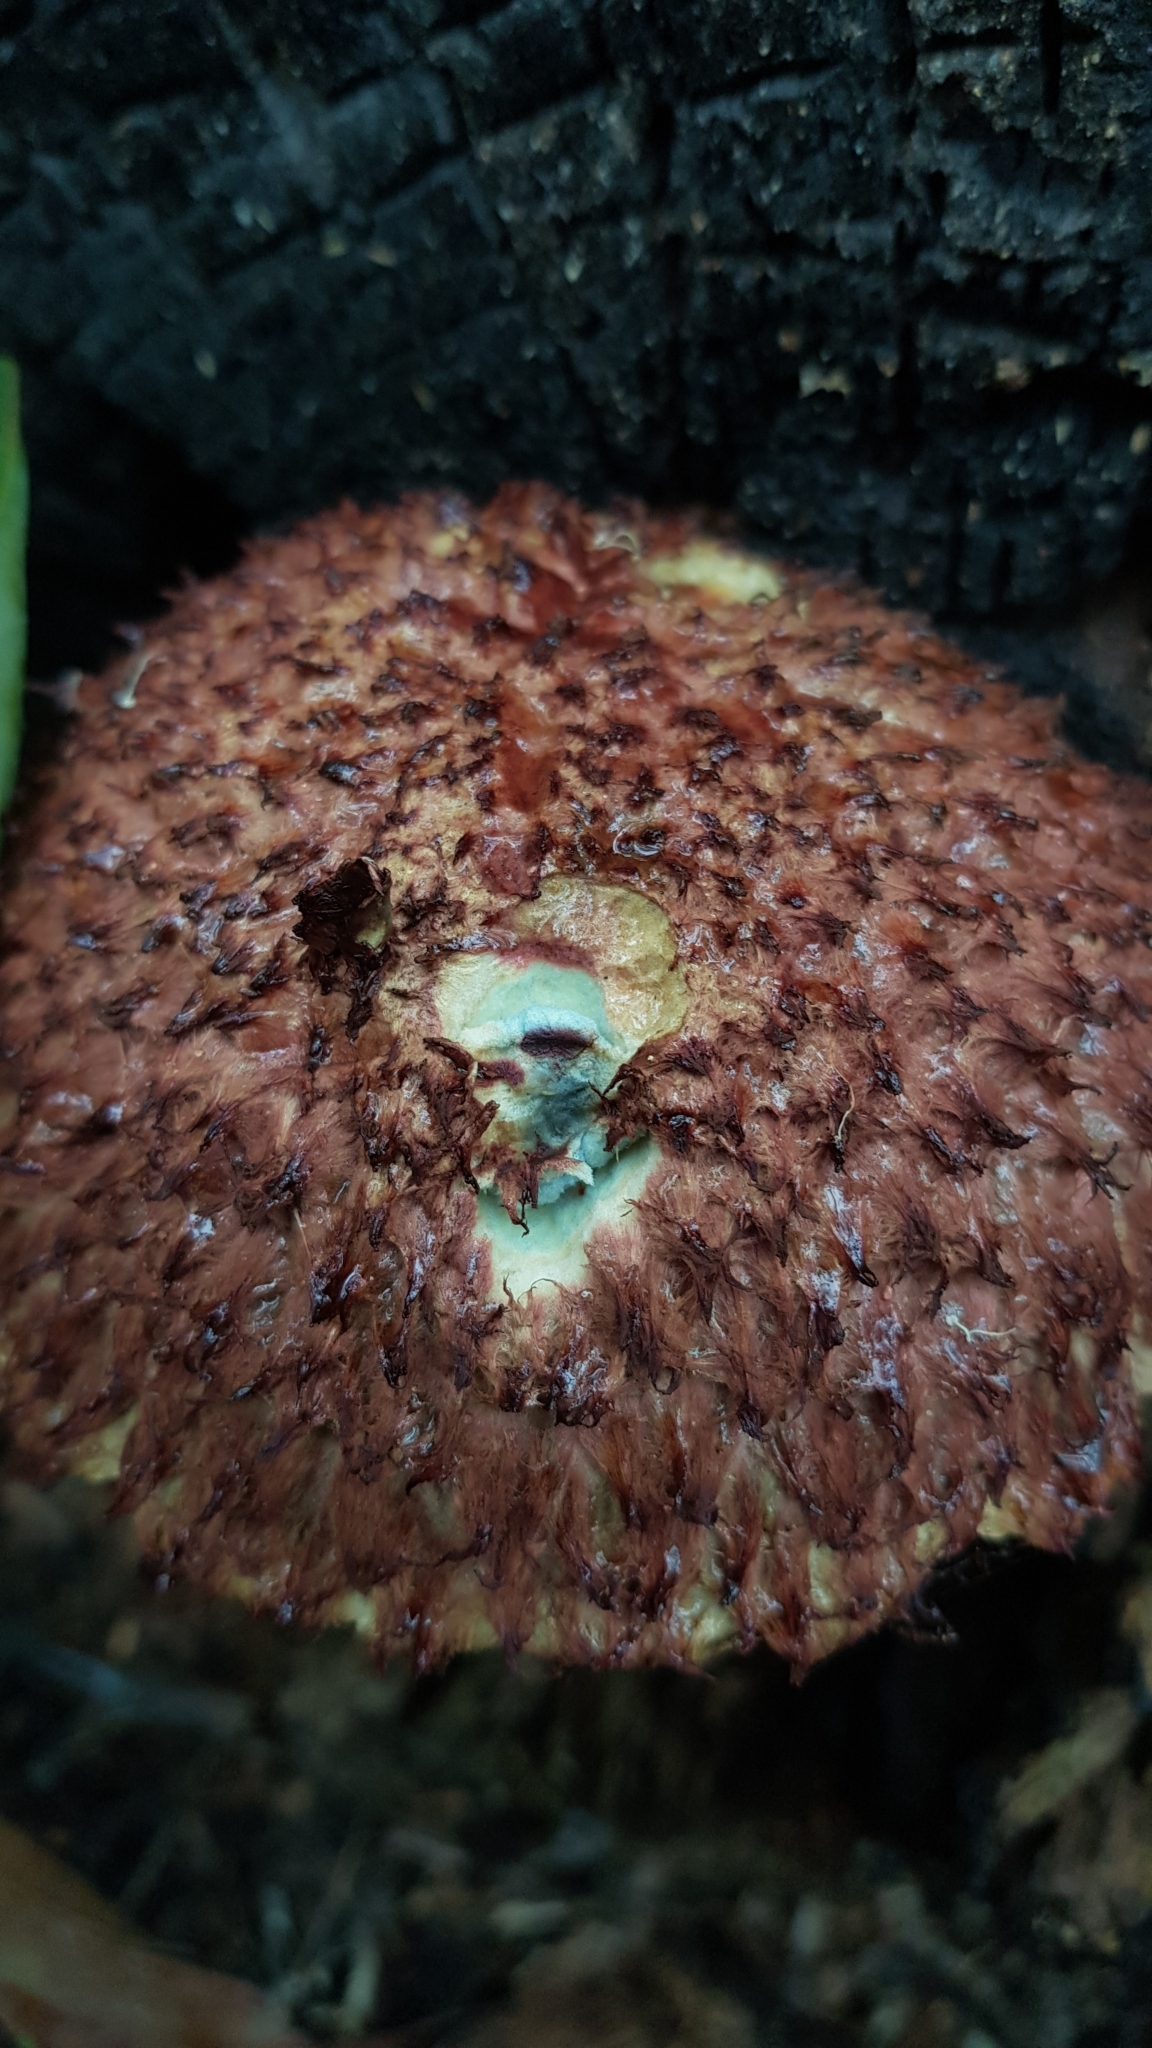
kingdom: Fungi
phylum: Basidiomycota
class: Agaricomycetes
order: Boletales
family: Boletaceae
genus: Boletellus
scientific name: Boletellus emodensis
